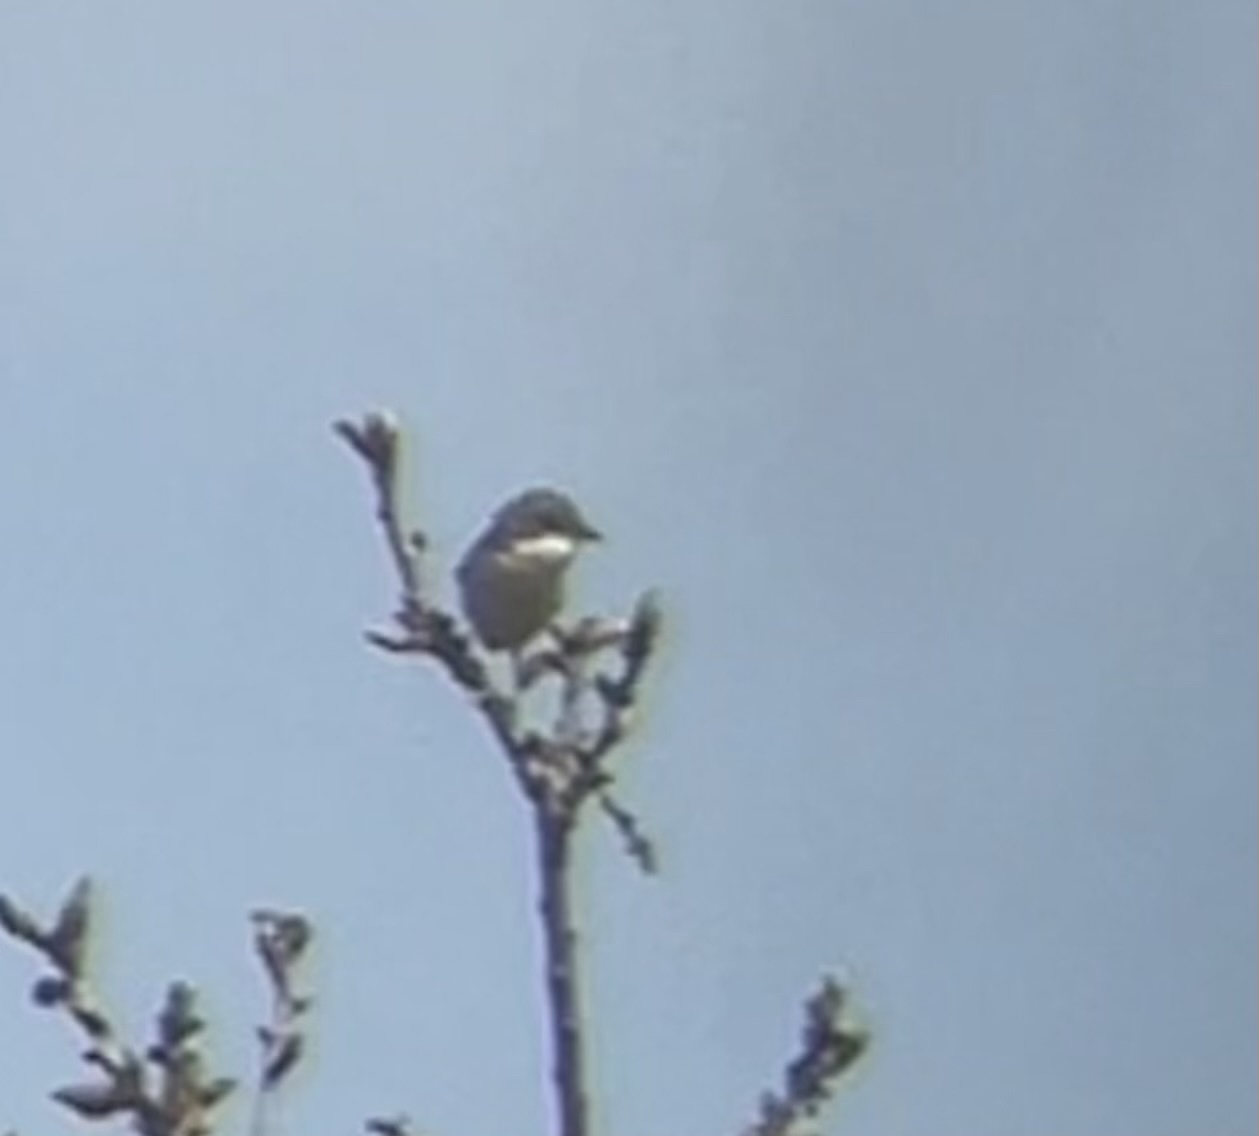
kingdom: Animalia
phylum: Chordata
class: Aves
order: Passeriformes
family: Sylviidae
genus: Sylvia
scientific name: Sylvia communis
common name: Common whitethroat
